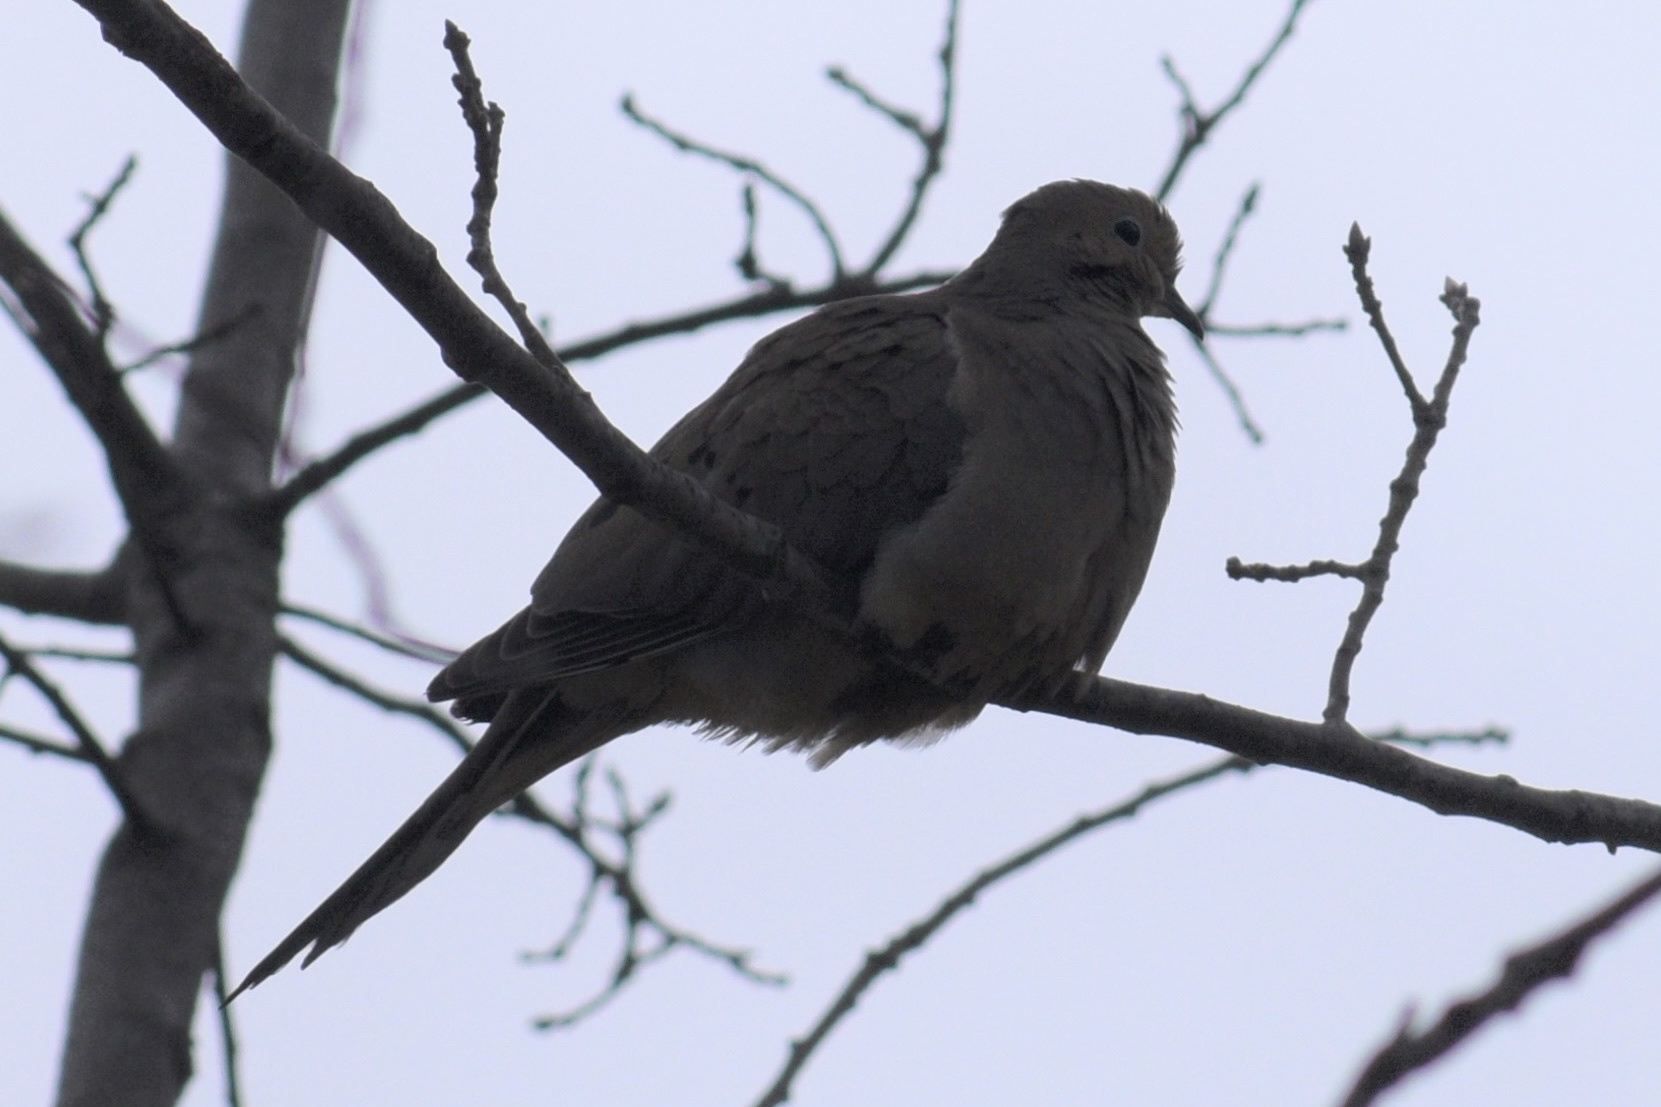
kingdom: Animalia
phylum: Chordata
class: Aves
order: Columbiformes
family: Columbidae
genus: Zenaida
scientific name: Zenaida macroura
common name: Mourning dove
